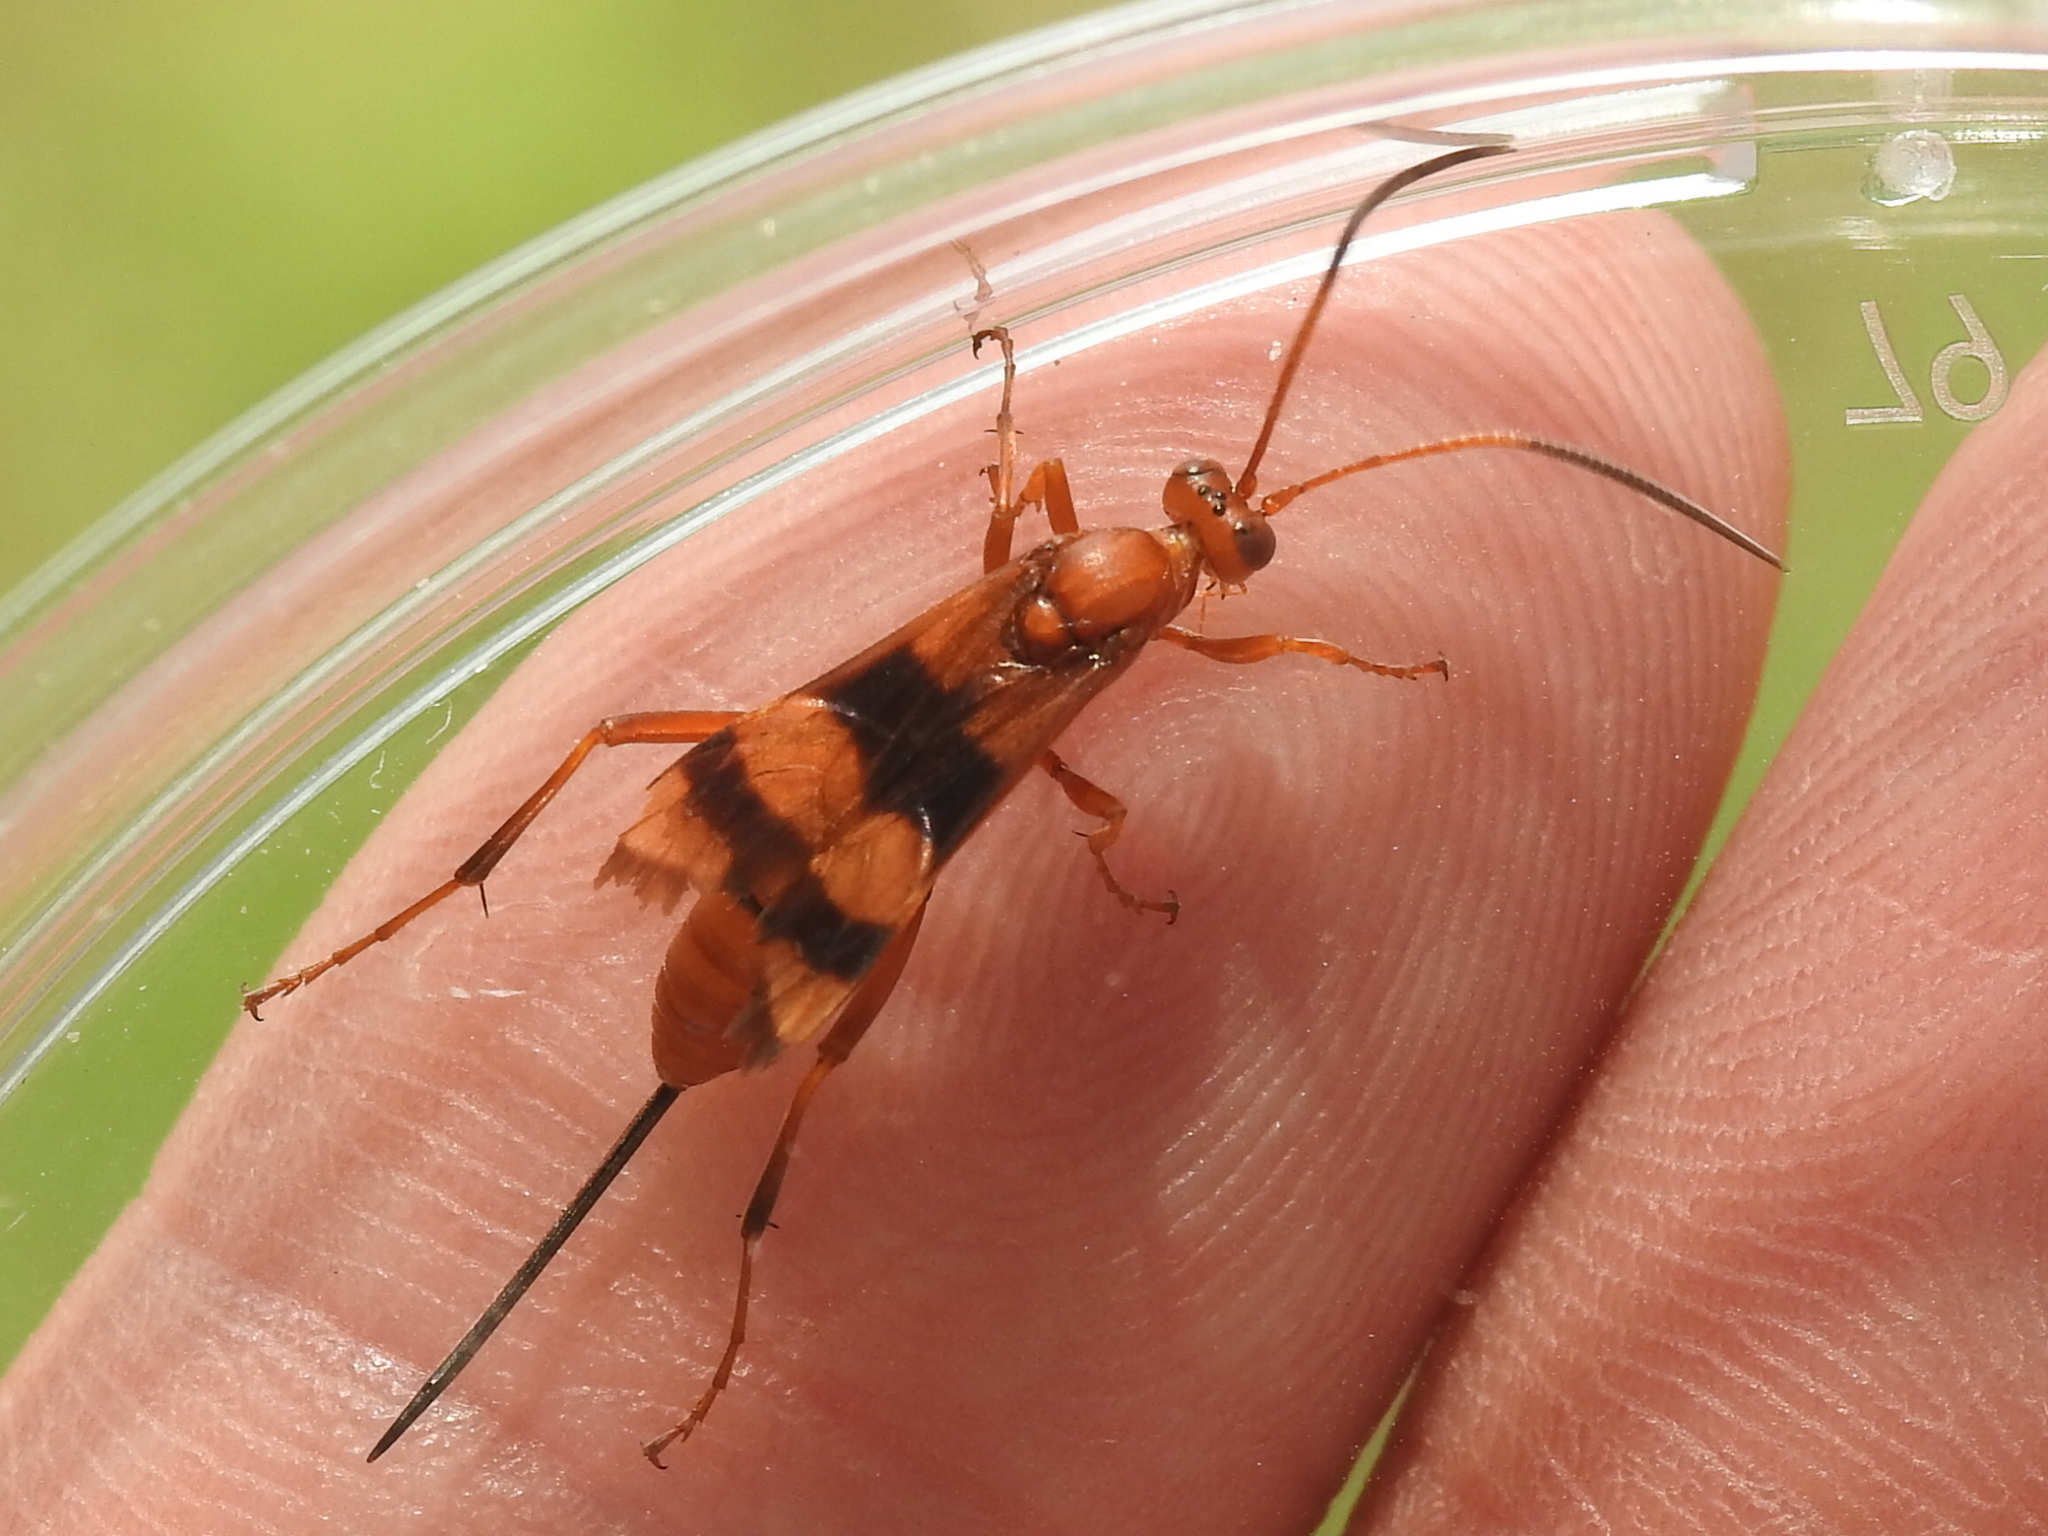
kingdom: Animalia
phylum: Arthropoda
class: Insecta
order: Hymenoptera
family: Ichneumonidae
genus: Compsocryptus
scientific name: Compsocryptus texensis
